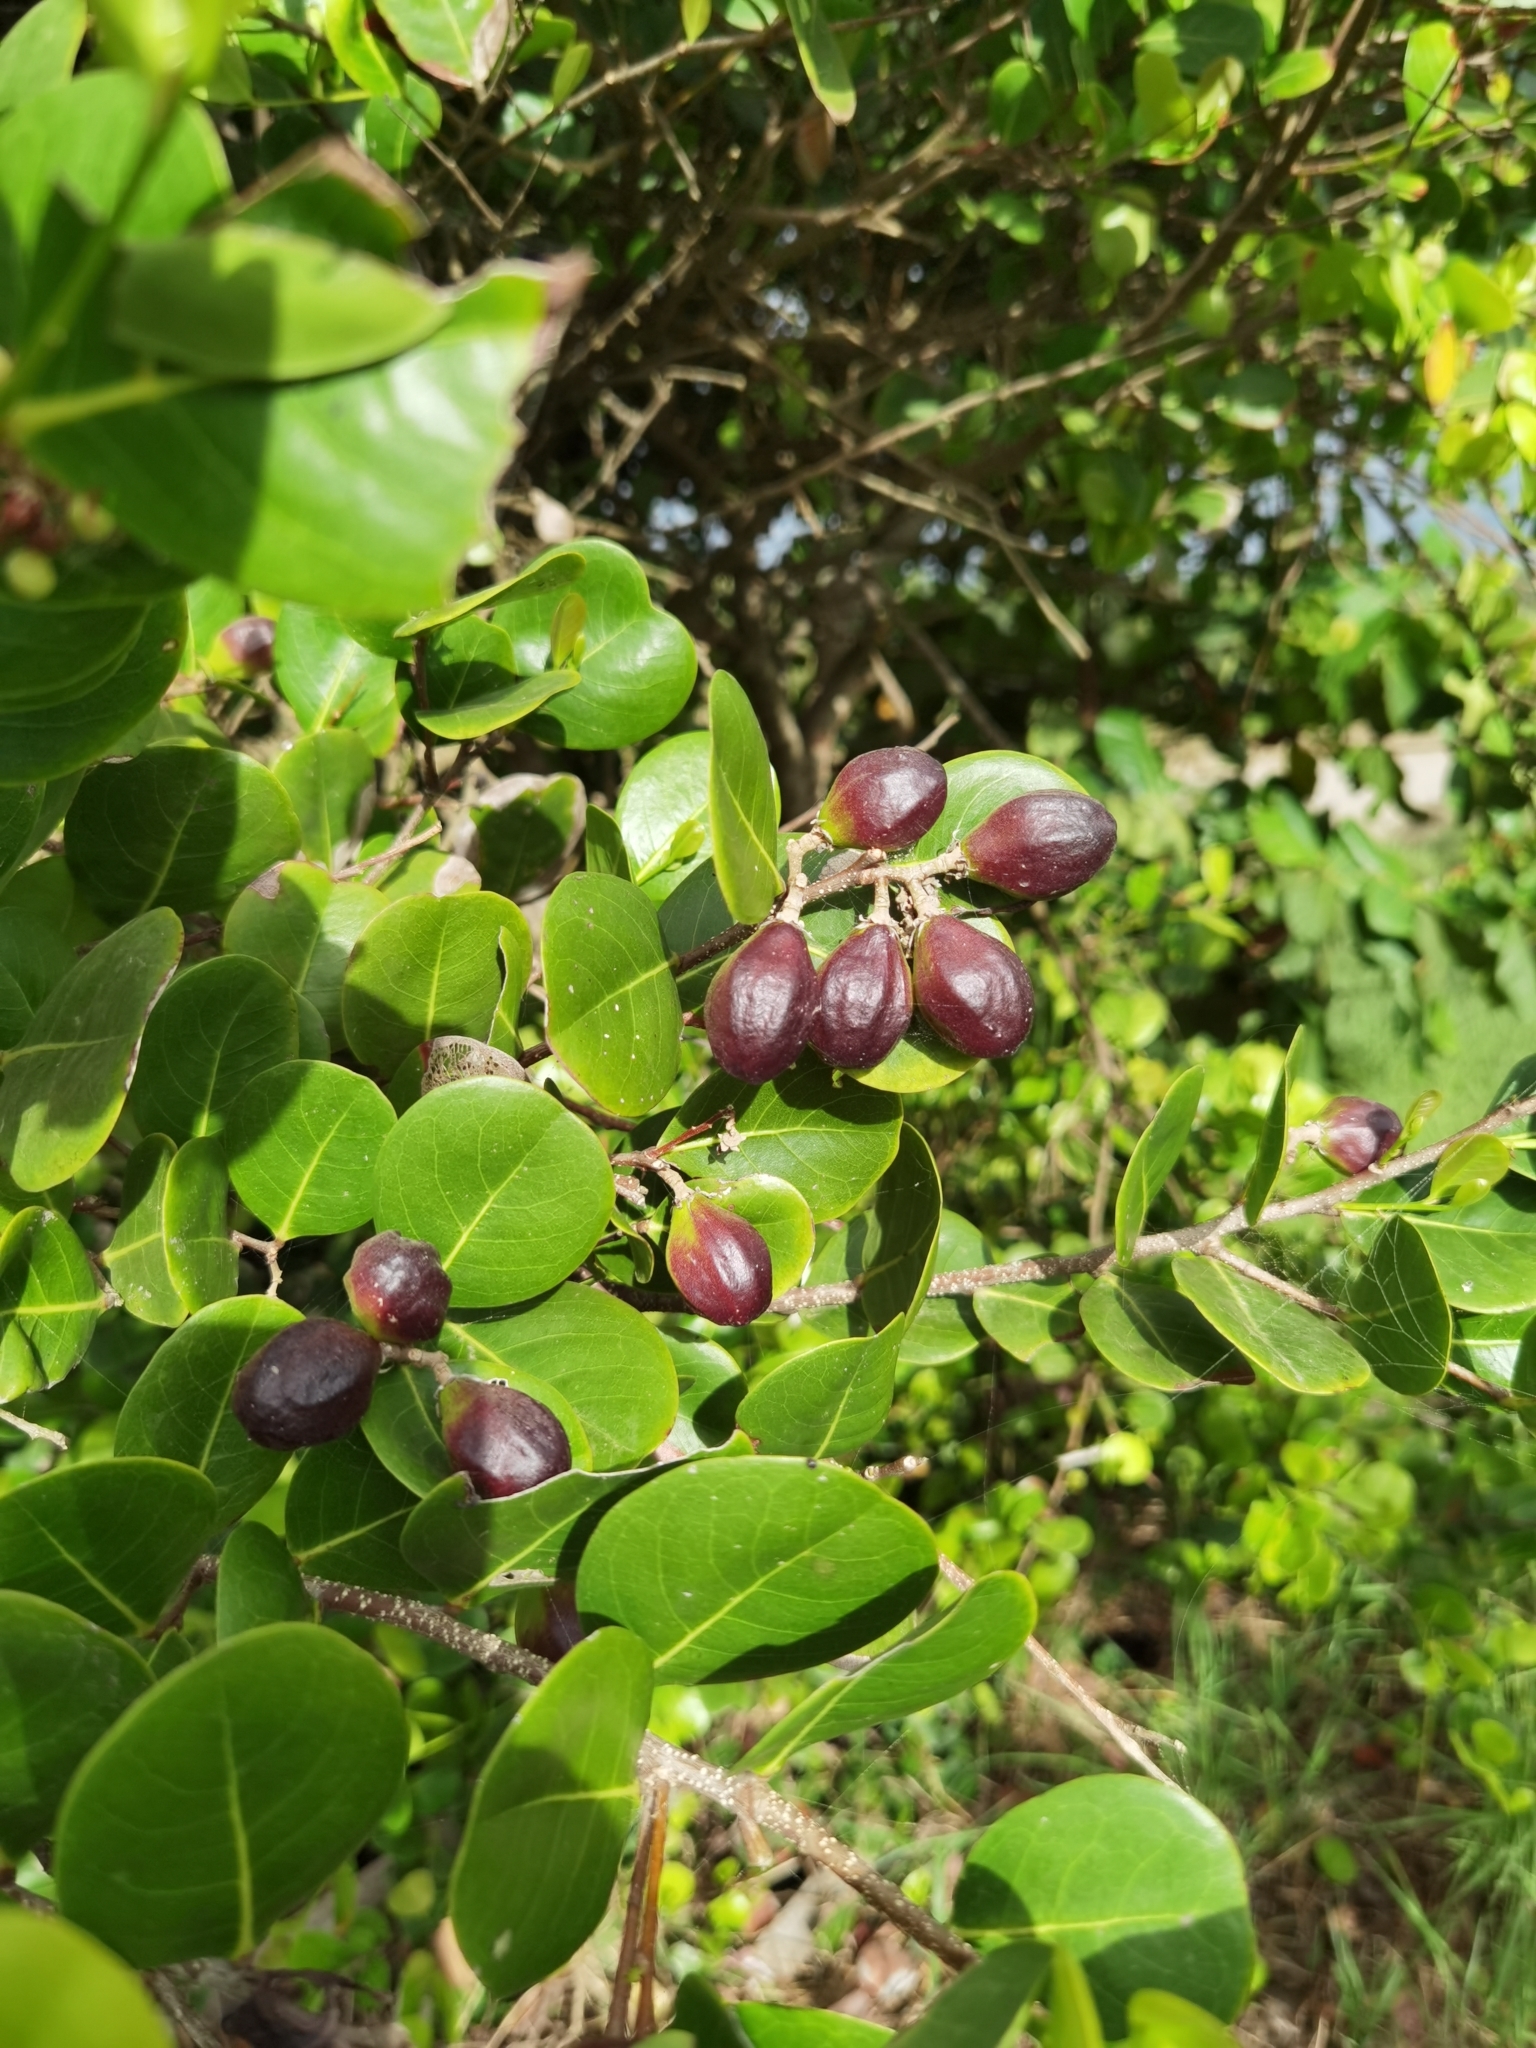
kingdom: Plantae
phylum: Tracheophyta
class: Magnoliopsida
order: Malpighiales
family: Chrysobalanaceae
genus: Chrysobalanus
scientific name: Chrysobalanus icaco
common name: Coco plum
